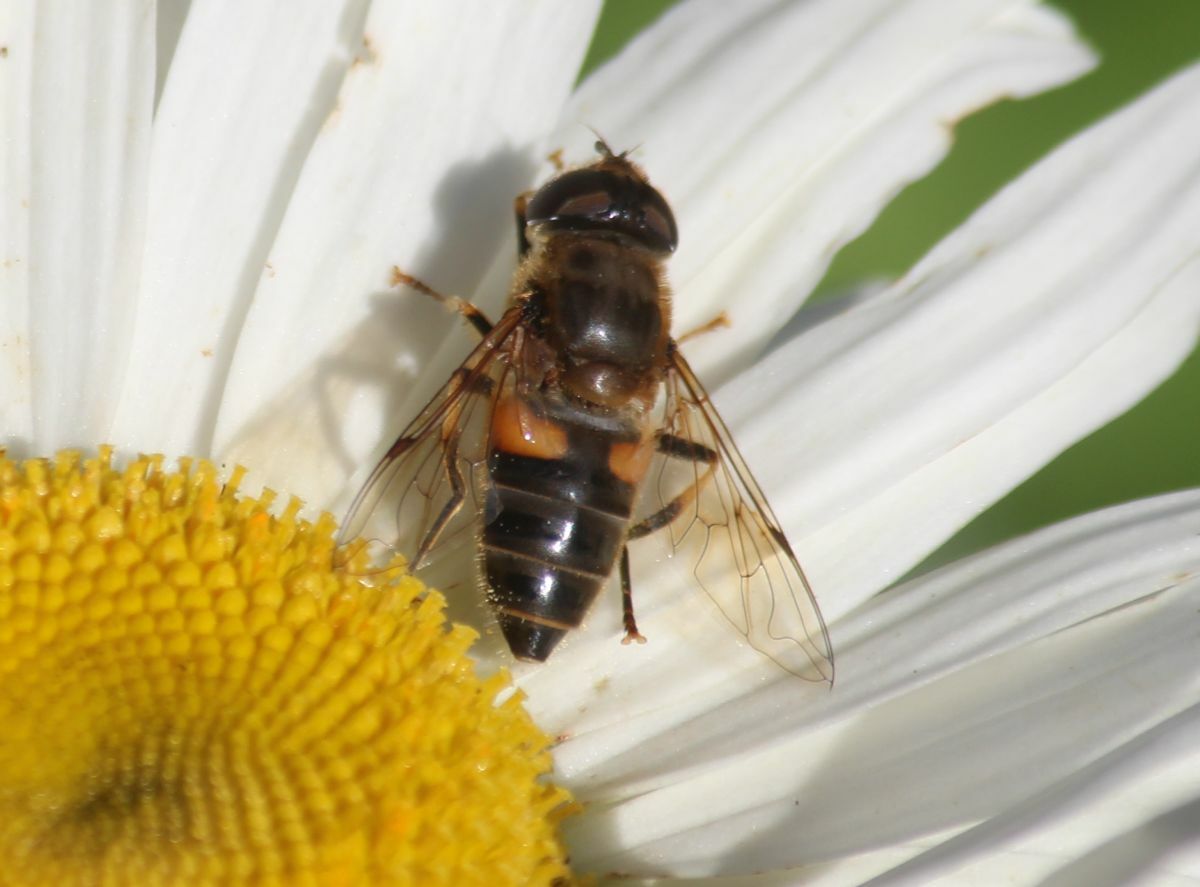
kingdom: Animalia
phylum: Arthropoda
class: Insecta
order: Diptera
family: Syrphidae
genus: Eristalis
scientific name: Eristalis pertinax
